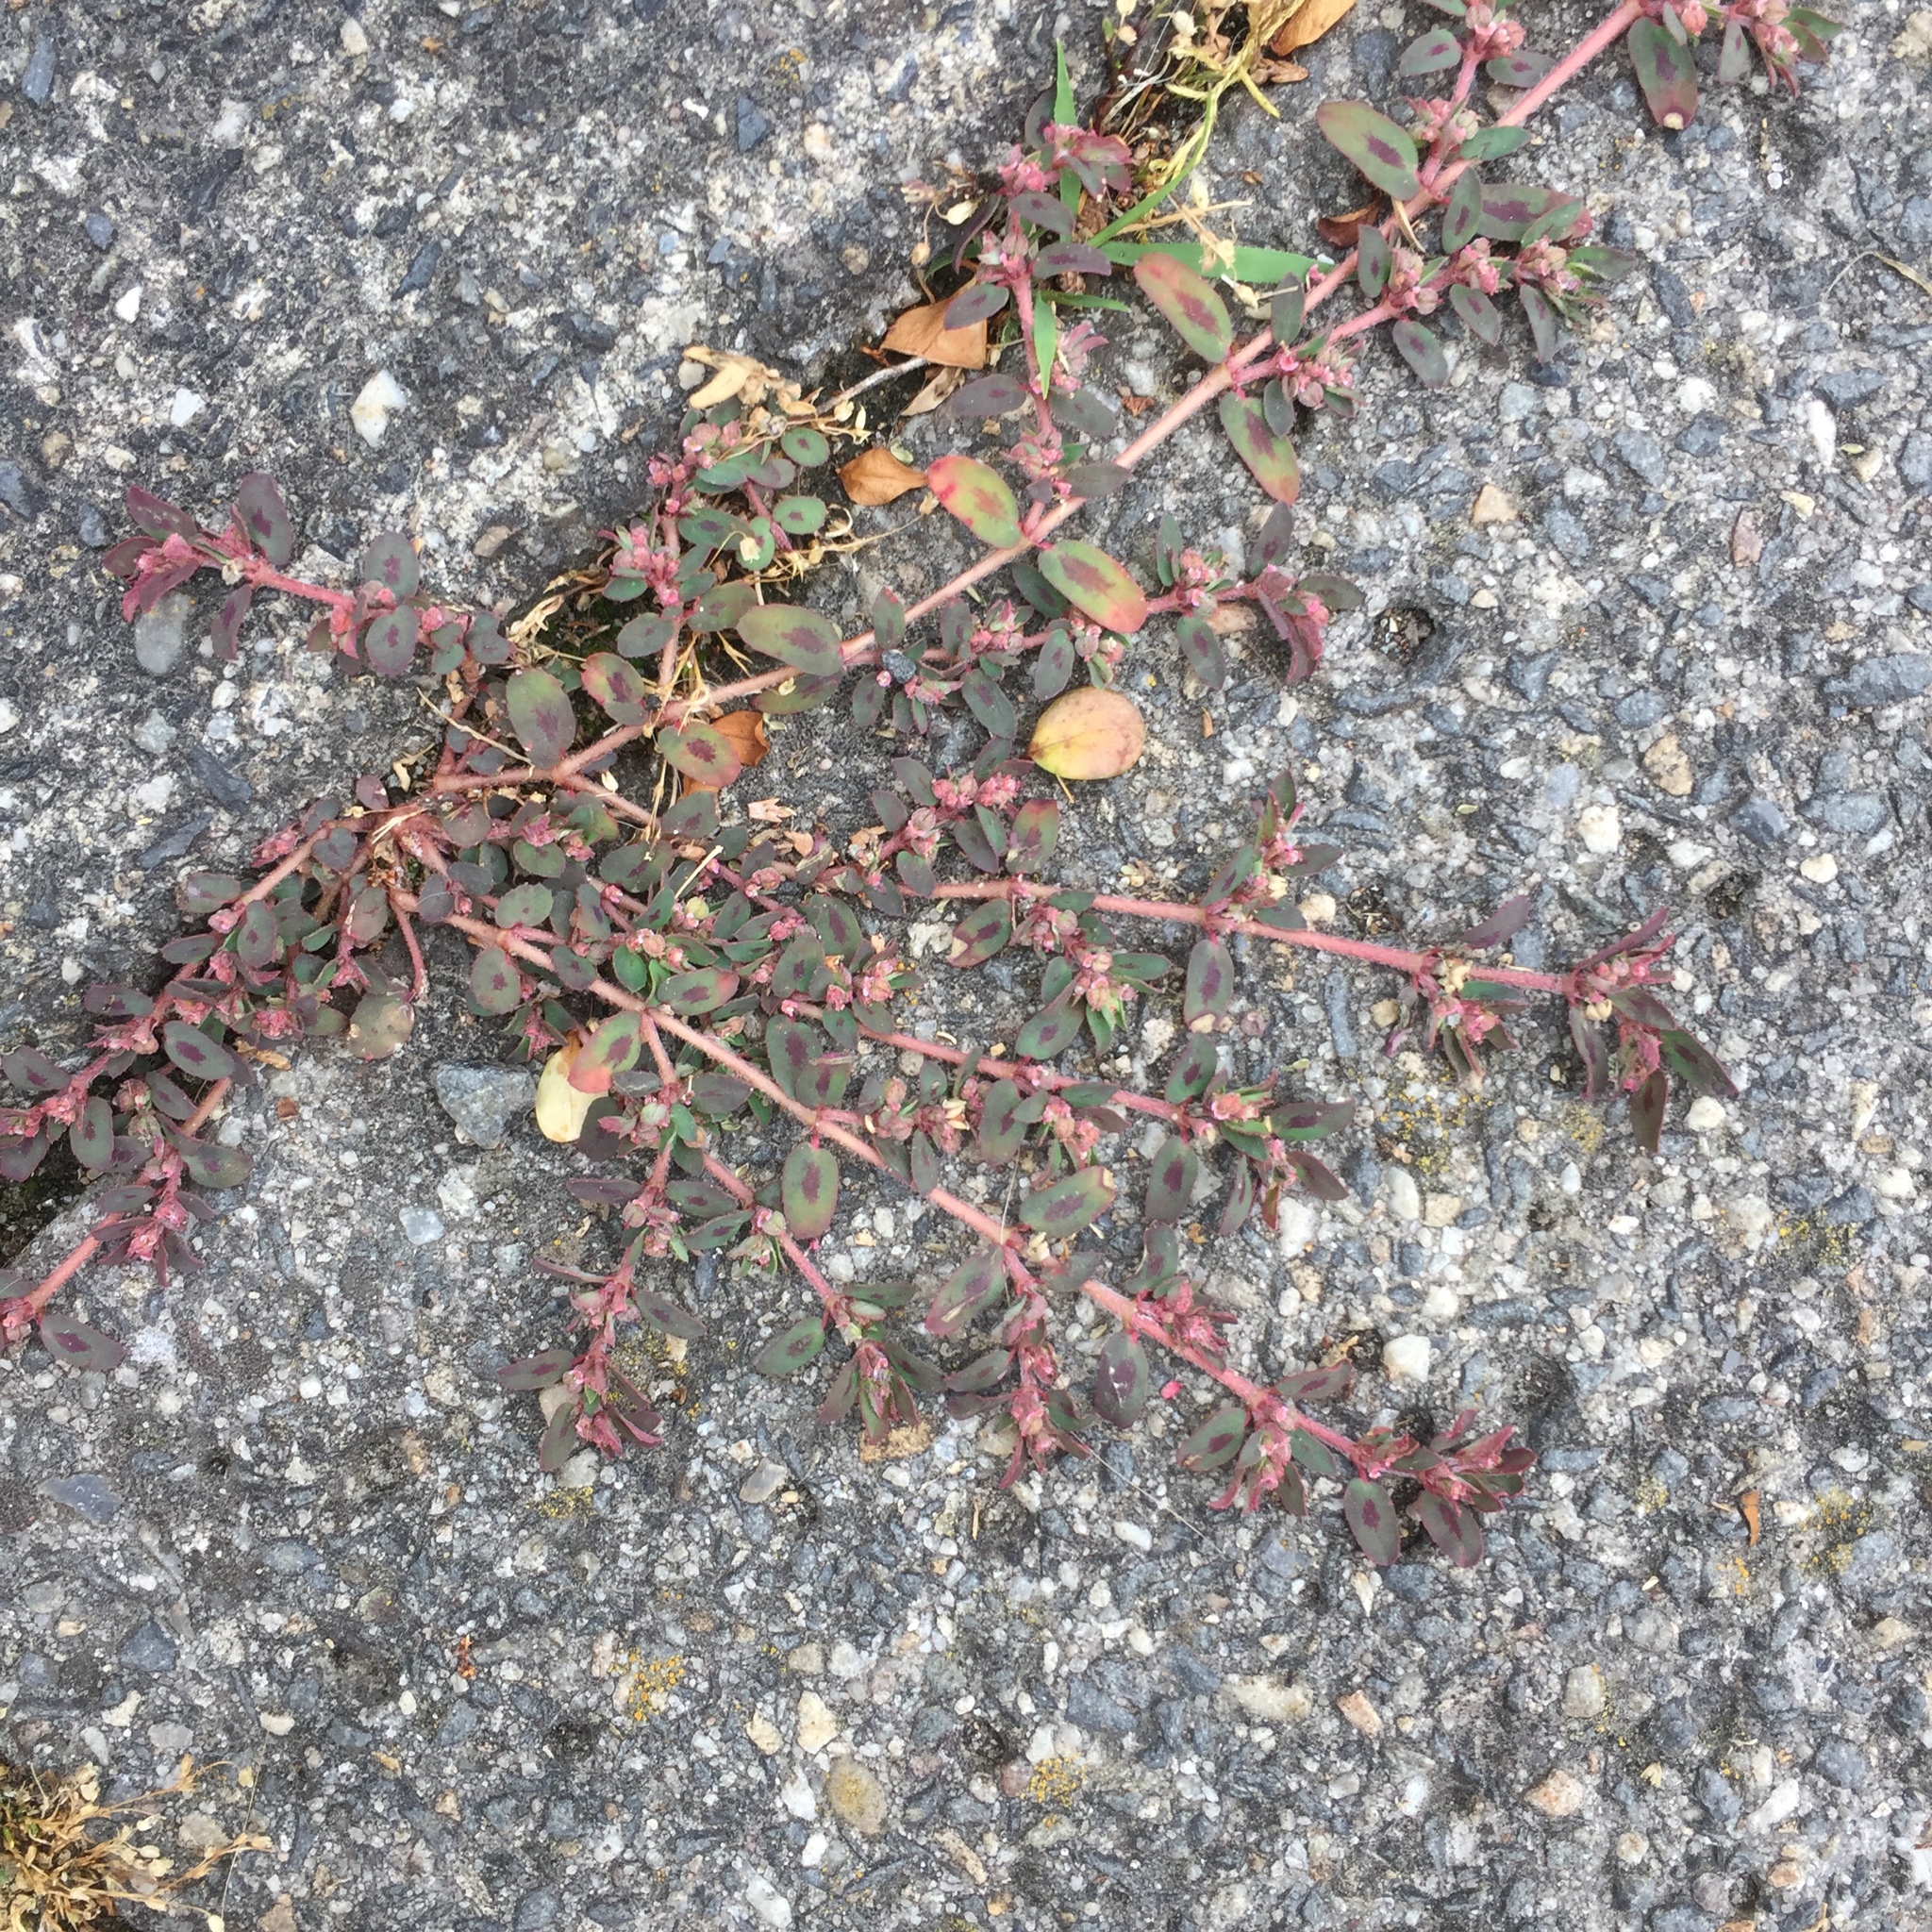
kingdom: Plantae
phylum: Tracheophyta
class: Magnoliopsida
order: Malpighiales
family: Euphorbiaceae
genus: Euphorbia
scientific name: Euphorbia maculata
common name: Spotted spurge
